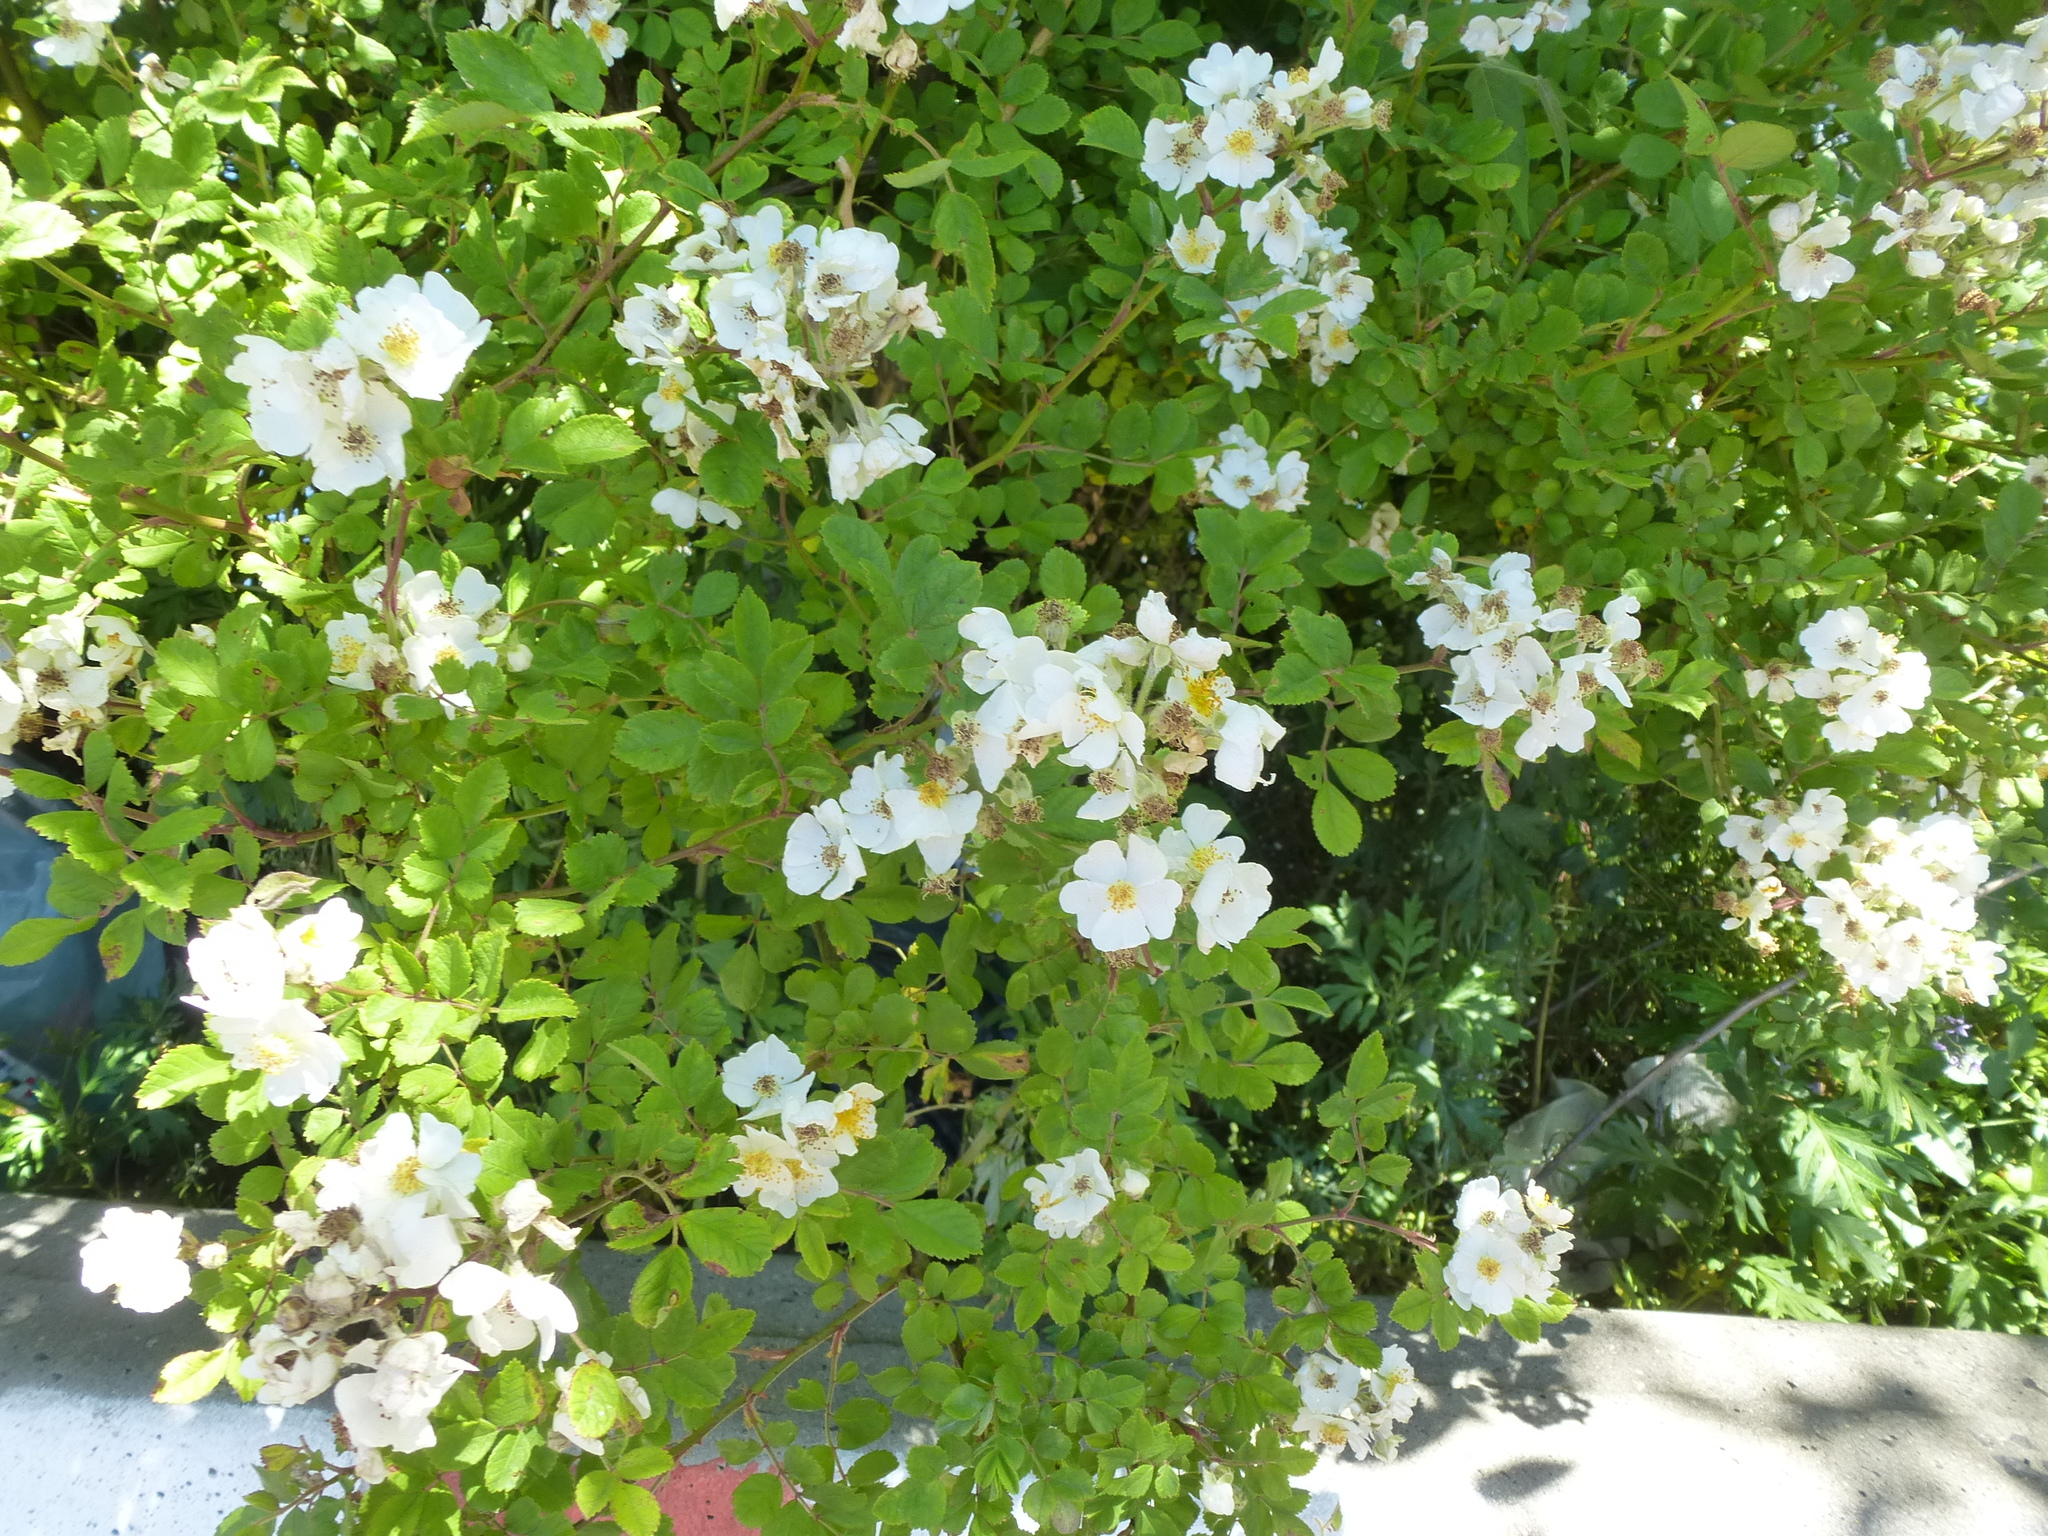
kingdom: Plantae
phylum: Tracheophyta
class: Magnoliopsida
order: Rosales
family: Rosaceae
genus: Rosa
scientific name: Rosa multiflora
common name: Multiflora rose
